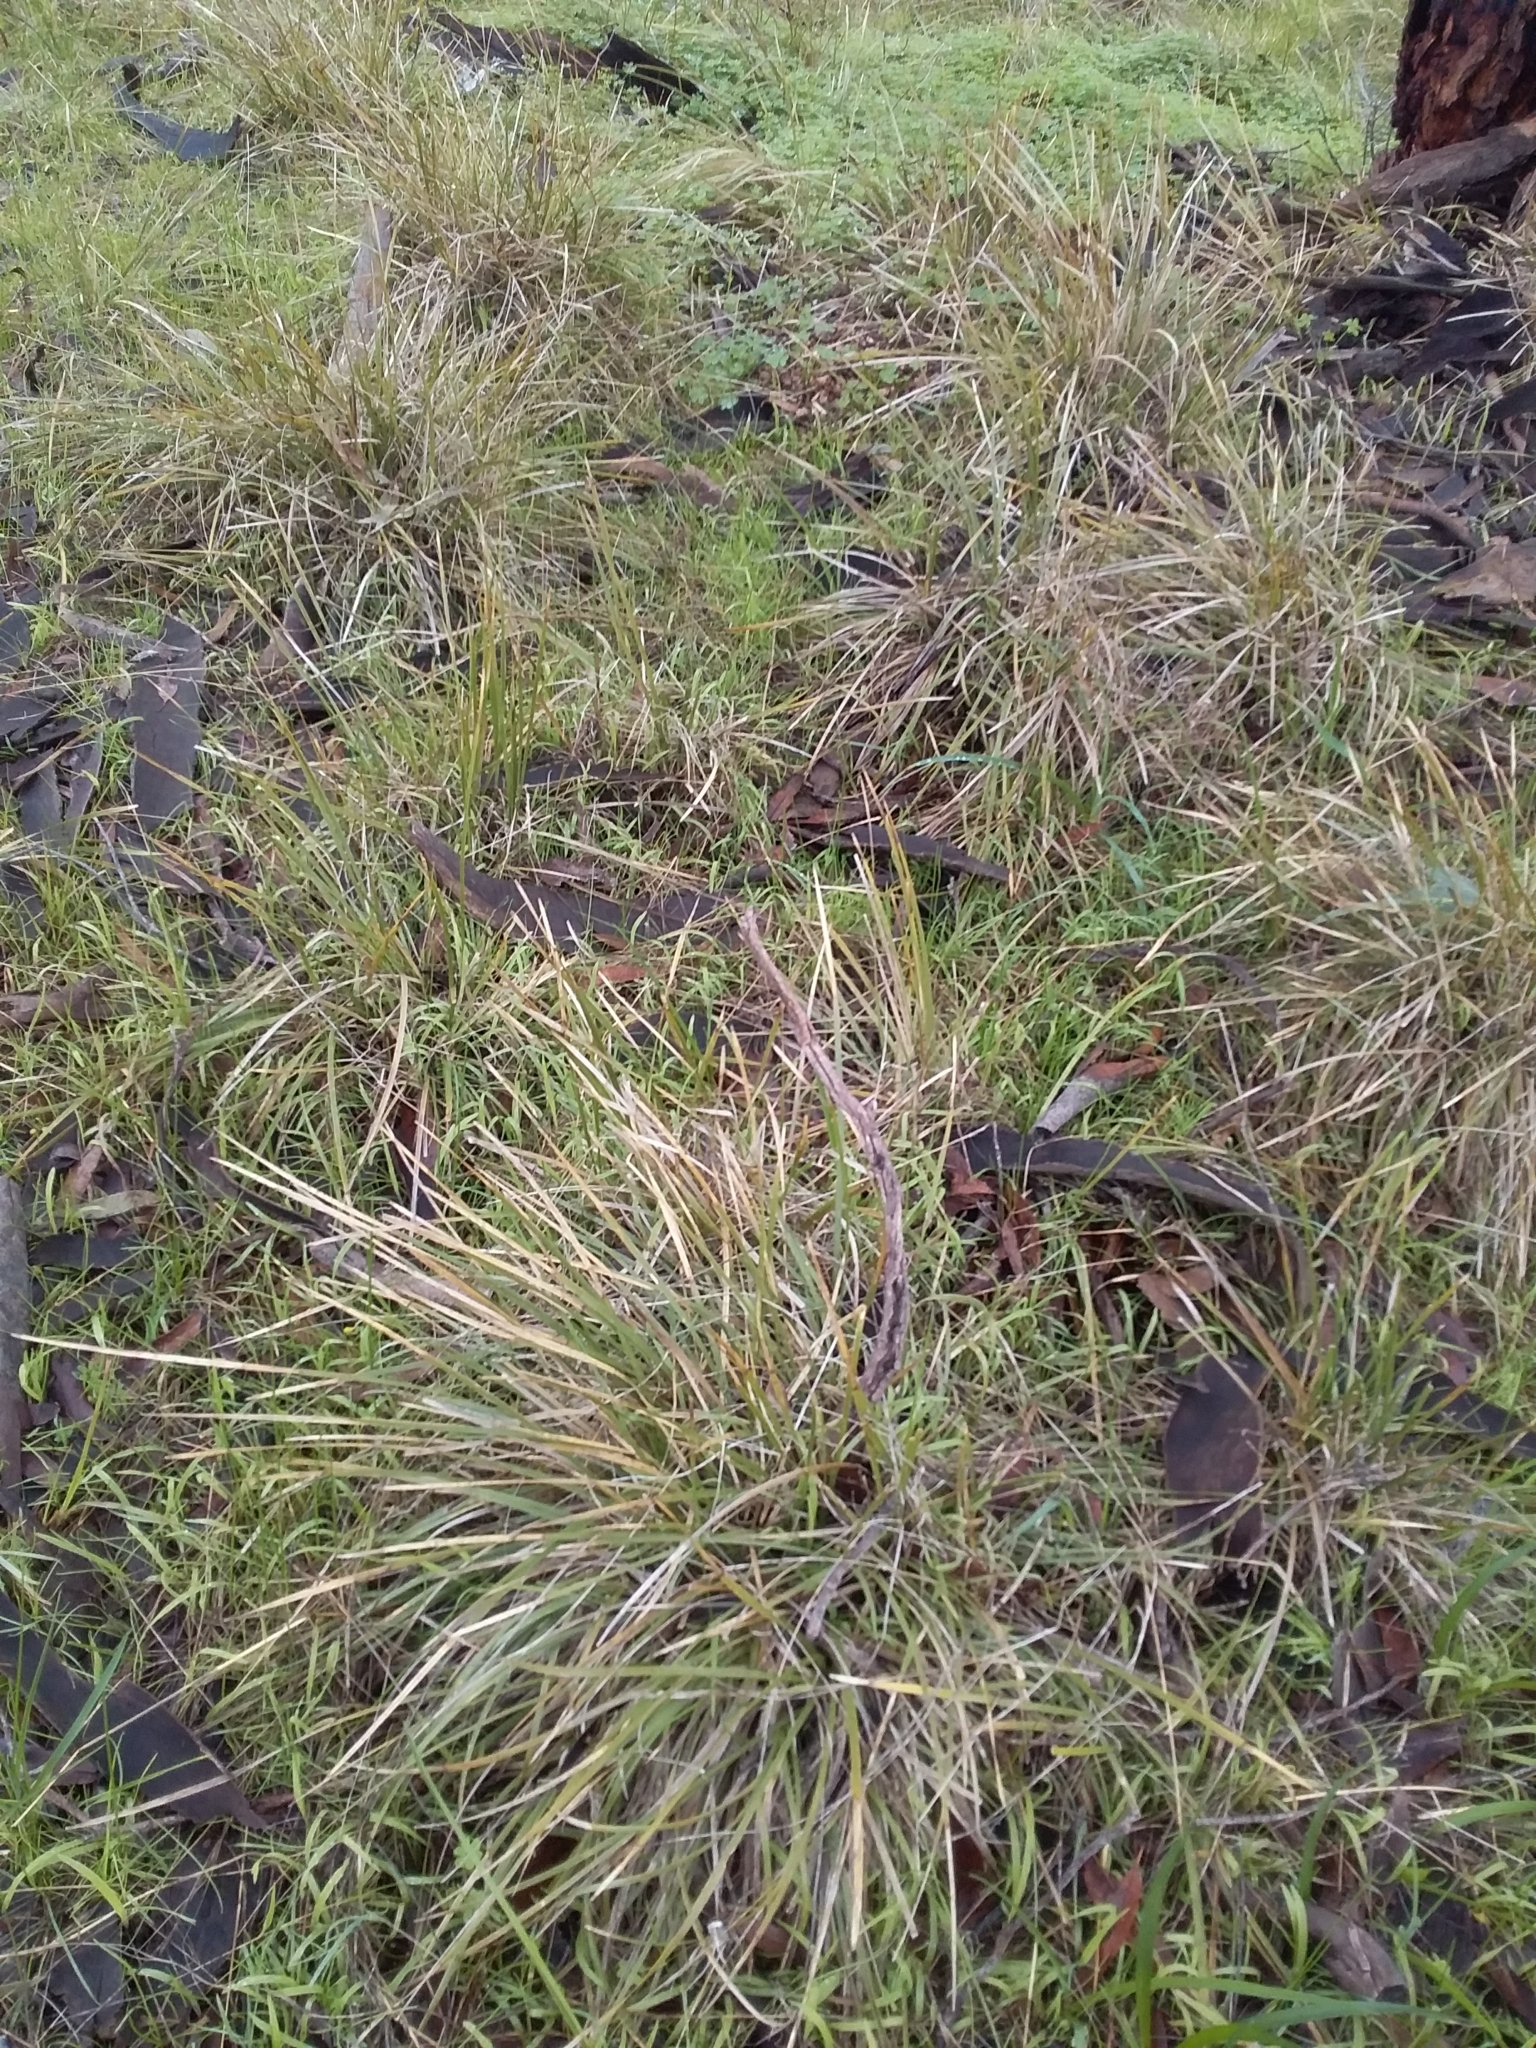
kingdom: Plantae
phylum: Tracheophyta
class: Liliopsida
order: Asparagales
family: Asparagaceae
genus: Lomandra
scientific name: Lomandra densiflora
